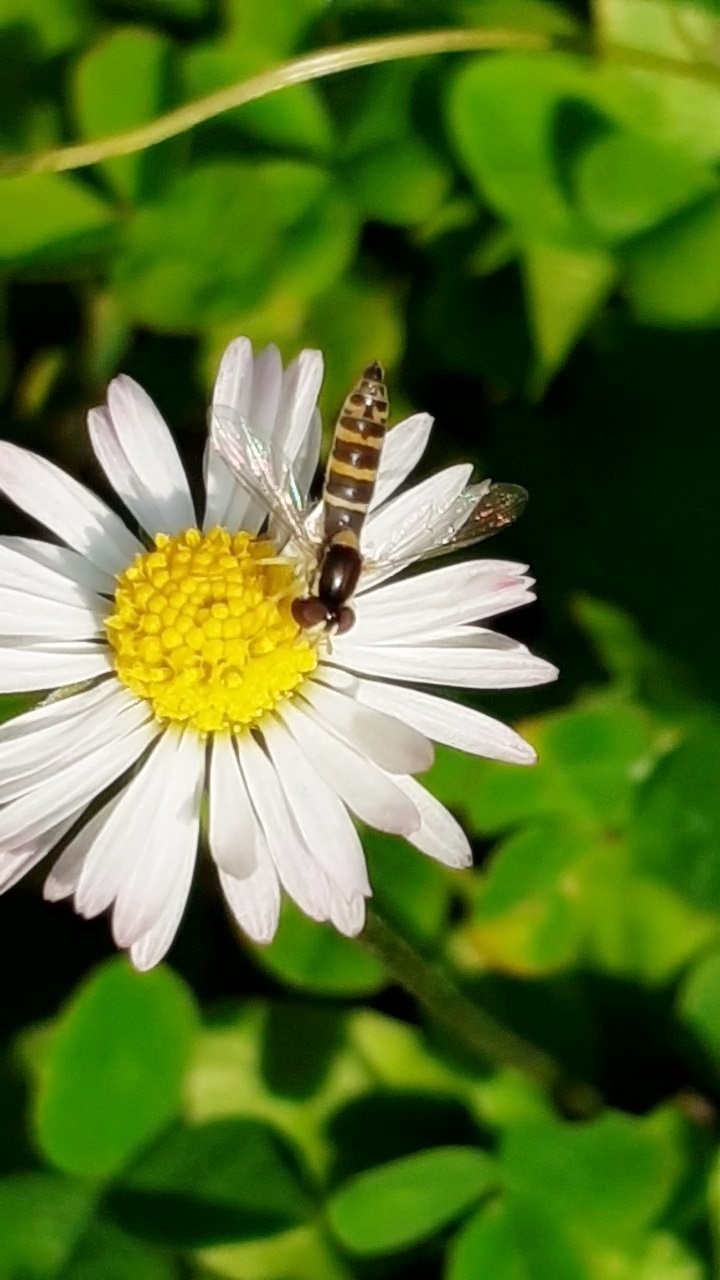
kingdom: Animalia
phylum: Arthropoda
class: Insecta
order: Diptera
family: Syrphidae
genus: Sphaerophoria
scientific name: Sphaerophoria
